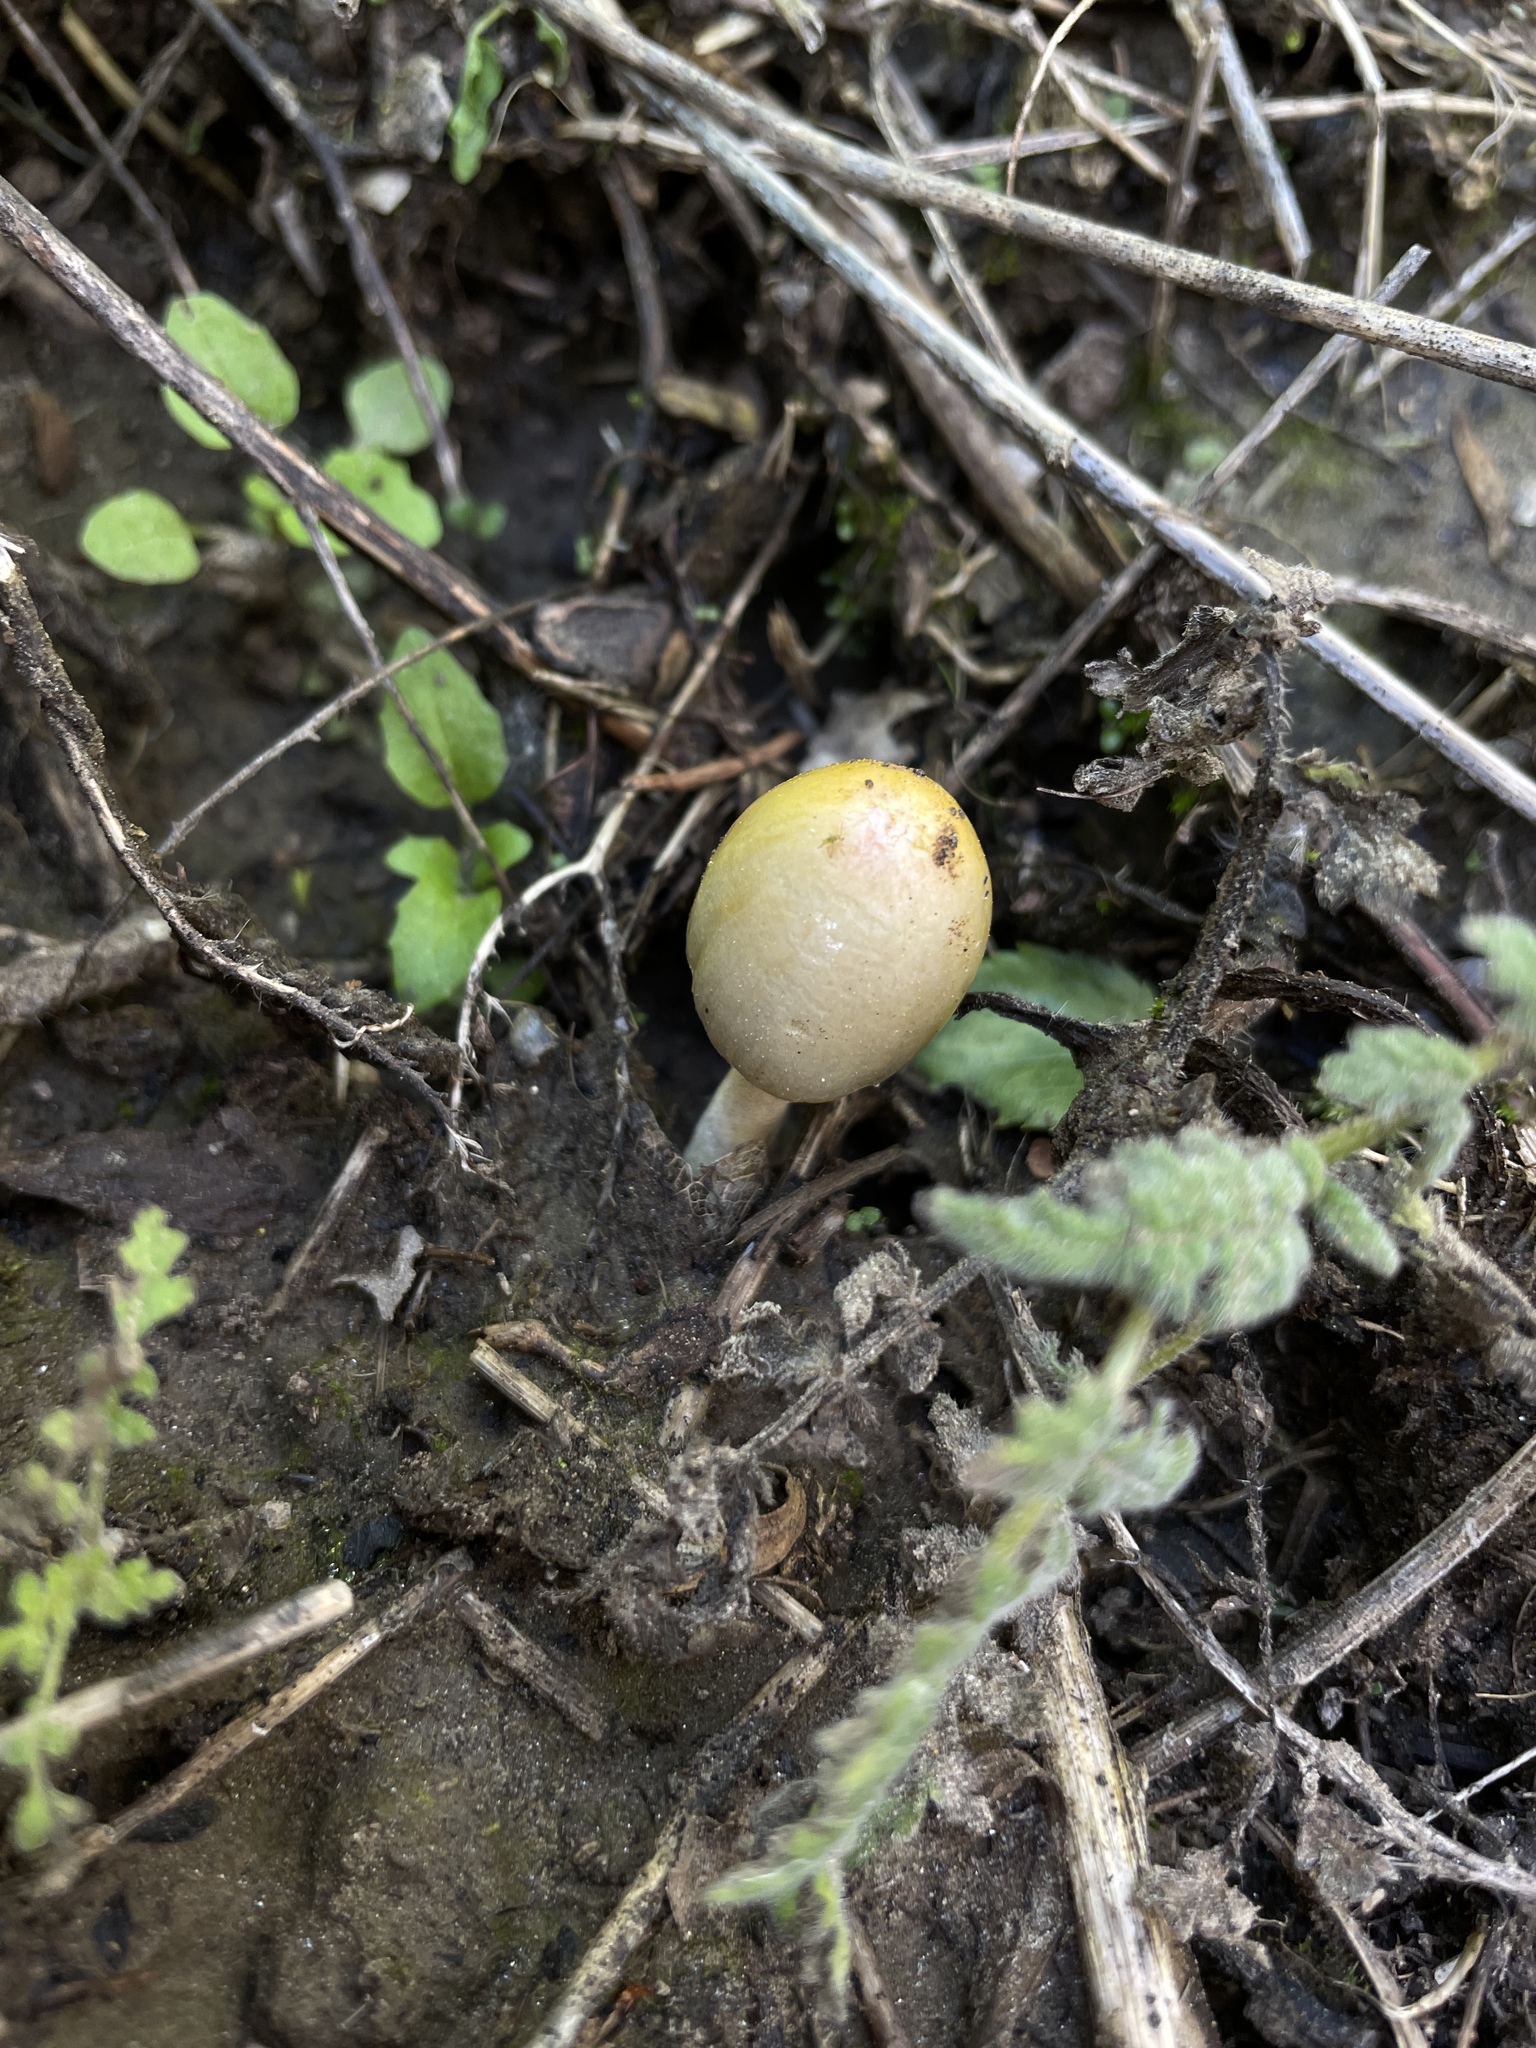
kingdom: Fungi
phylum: Basidiomycota
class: Agaricomycetes
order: Agaricales
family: Bolbitiaceae
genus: Bolbitius
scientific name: Bolbitius titubans
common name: Yellow fieldcap
